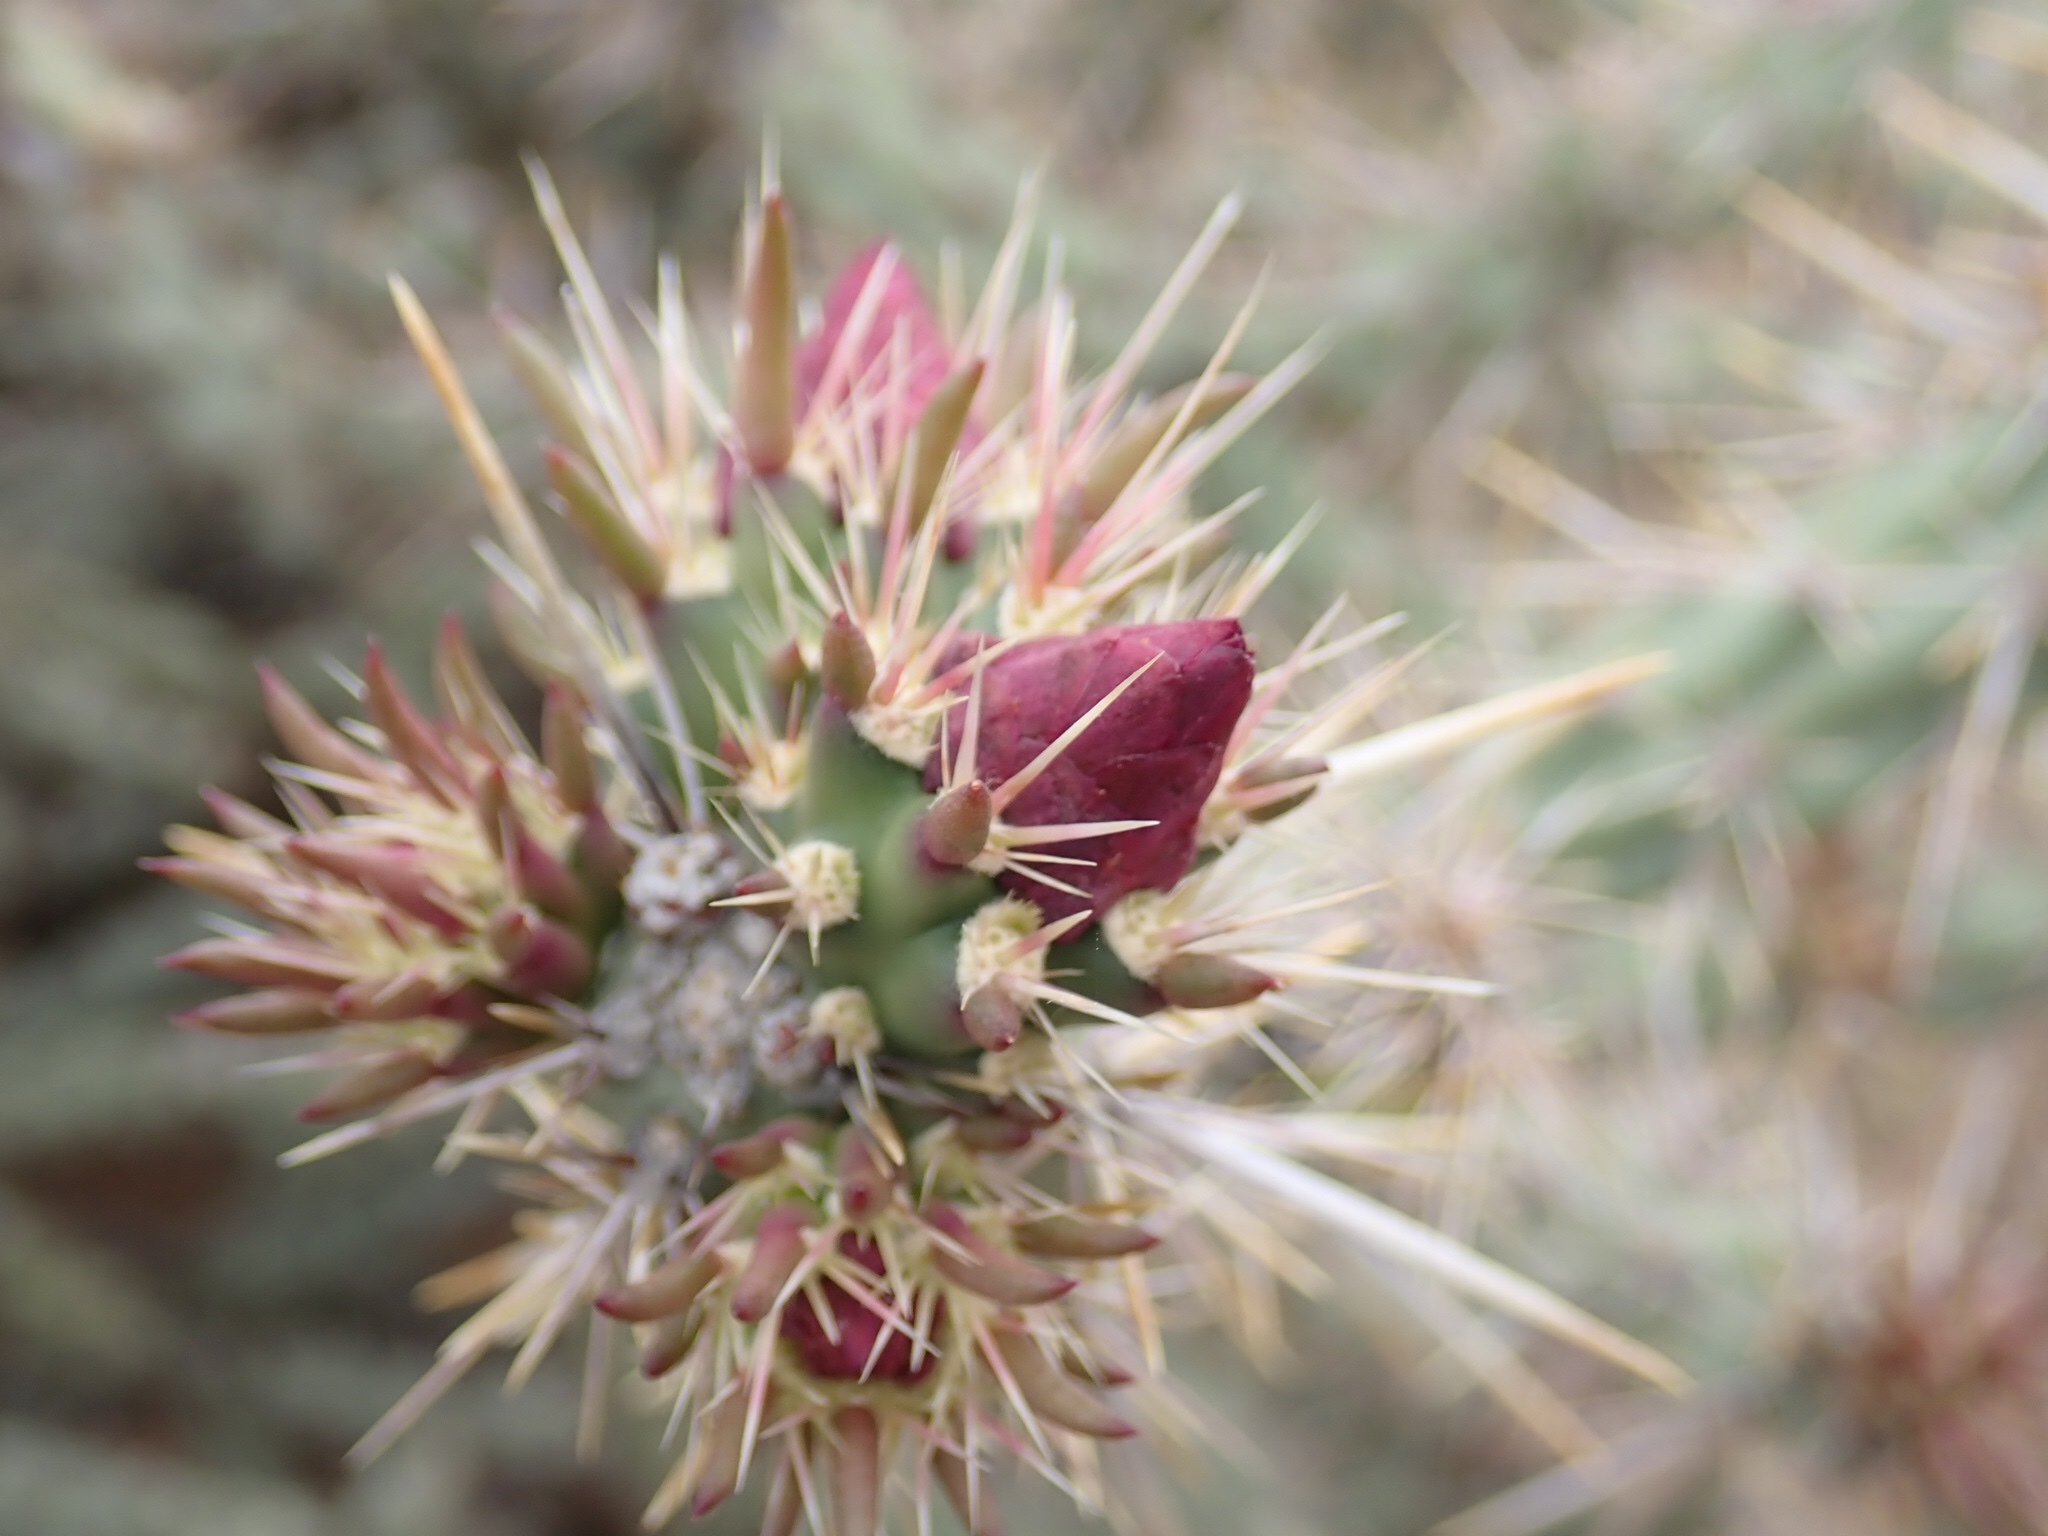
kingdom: Plantae
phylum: Tracheophyta
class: Magnoliopsida
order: Caryophyllales
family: Cactaceae
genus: Cylindropuntia
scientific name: Cylindropuntia acanthocarpa
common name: Buckhorn cholla
